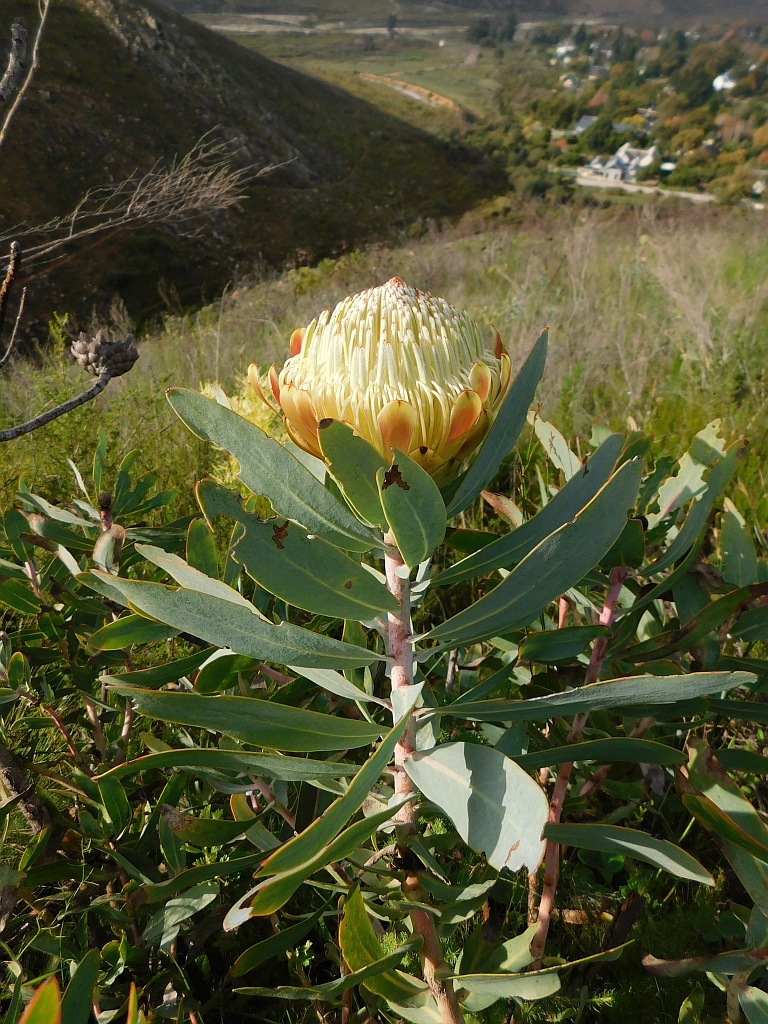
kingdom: Plantae
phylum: Tracheophyta
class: Magnoliopsida
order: Proteales
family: Proteaceae
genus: Protea
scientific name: Protea nitida
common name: Tree protea
